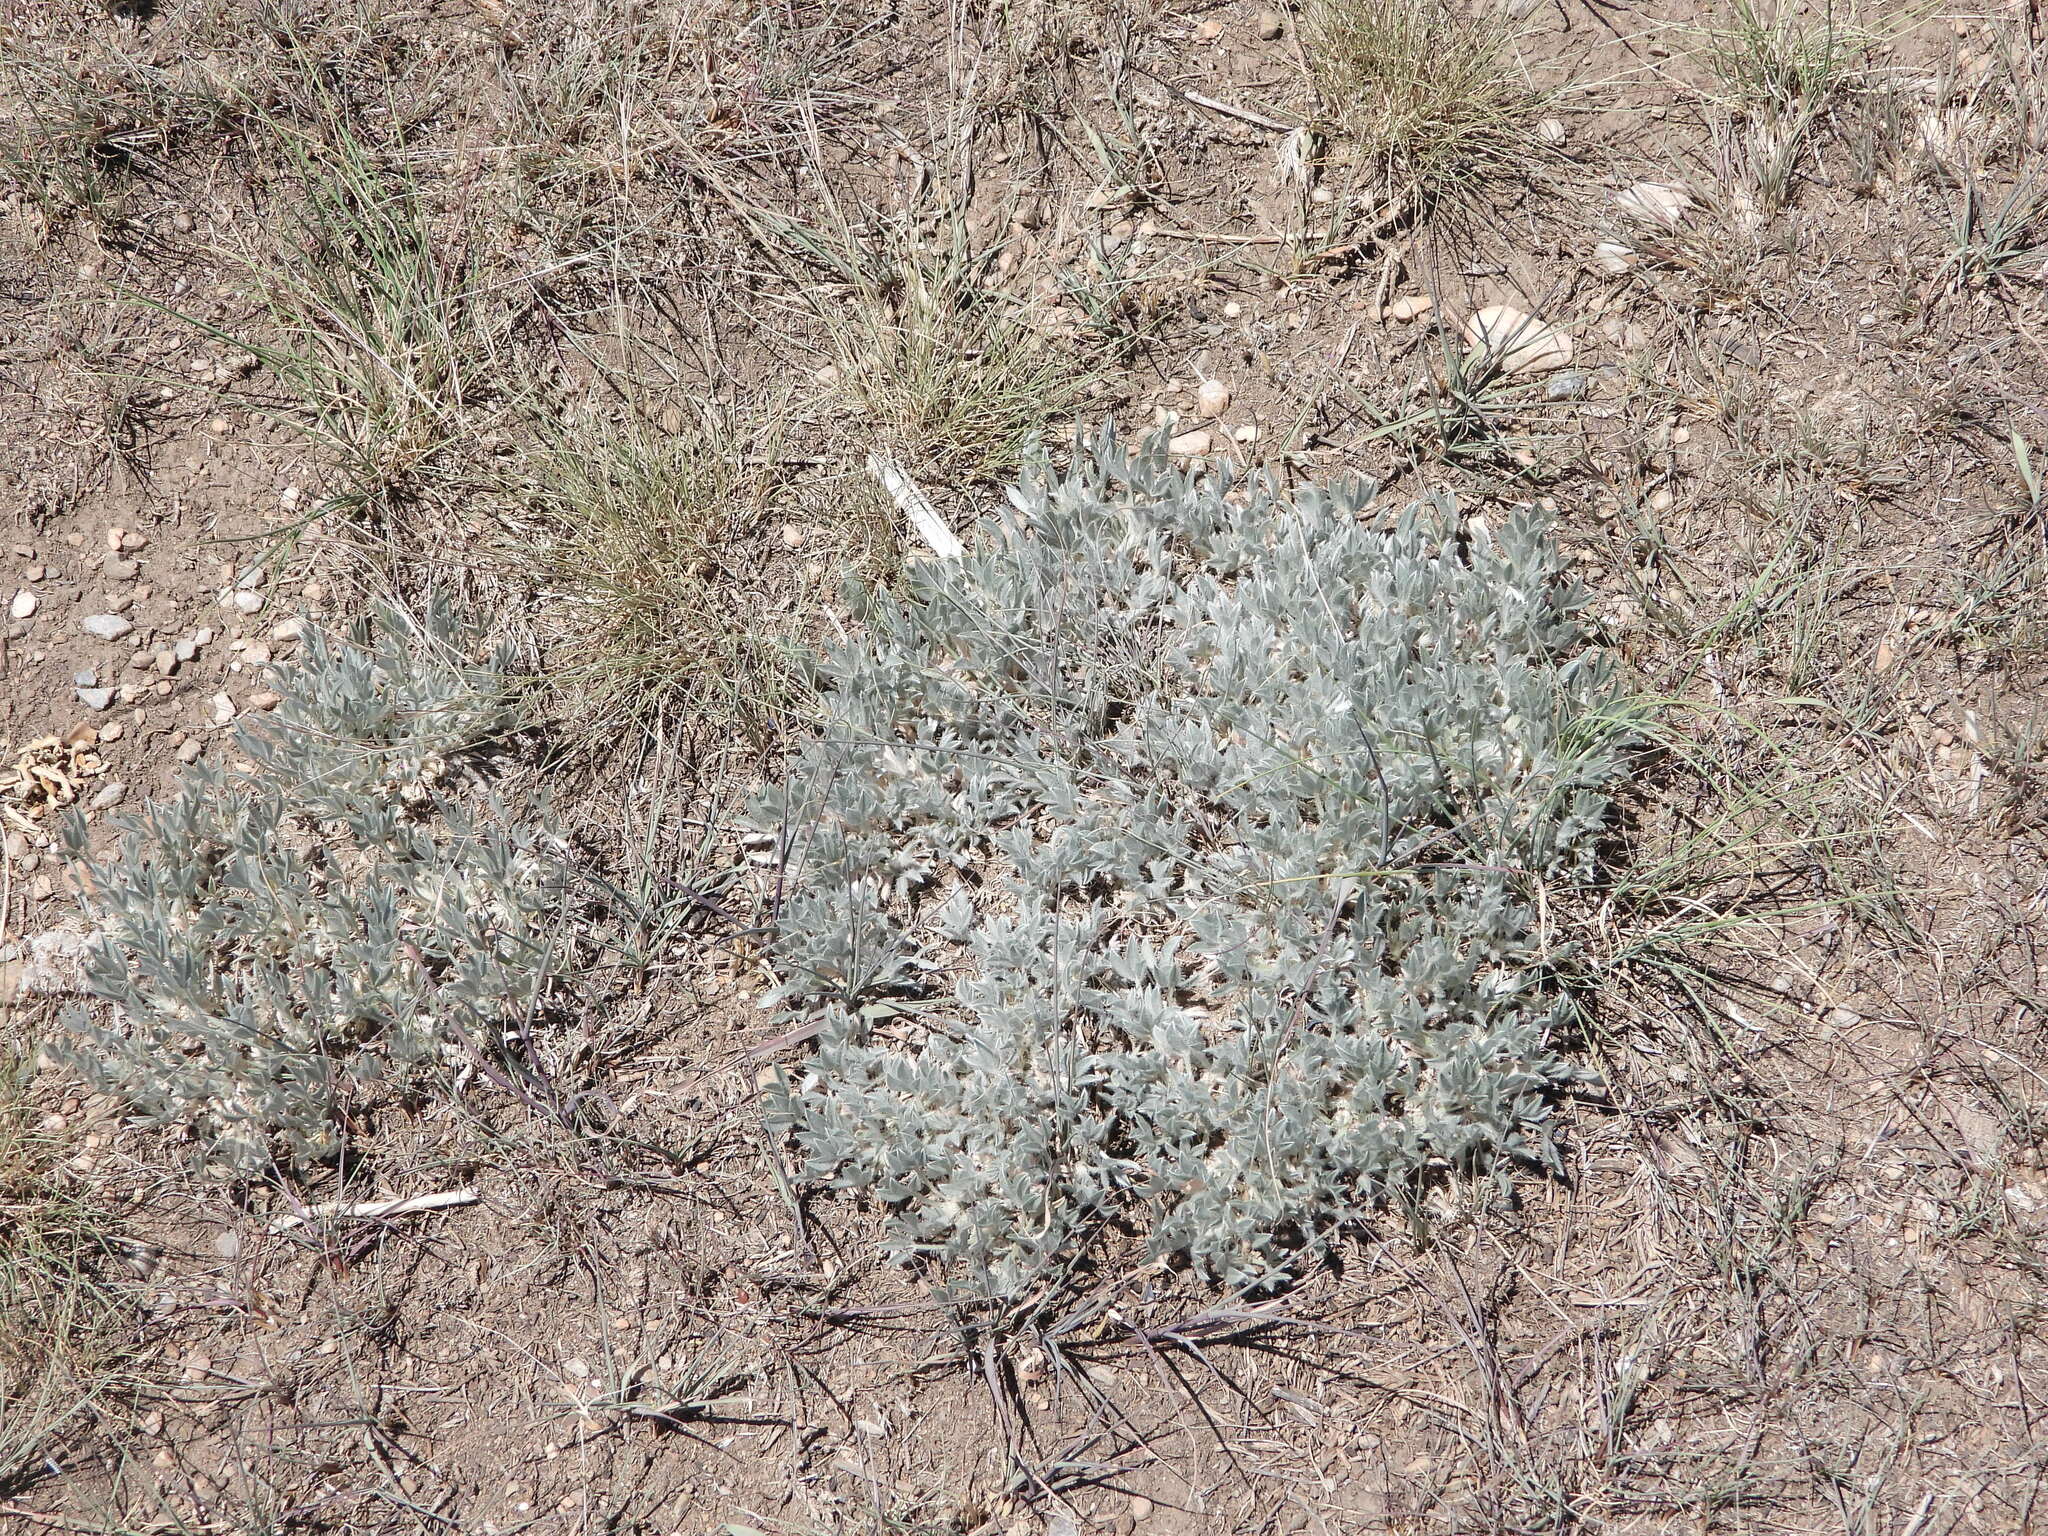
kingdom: Plantae
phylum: Tracheophyta
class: Magnoliopsida
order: Fabales
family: Fabaceae
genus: Astragalus
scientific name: Astragalus tridactylicus
